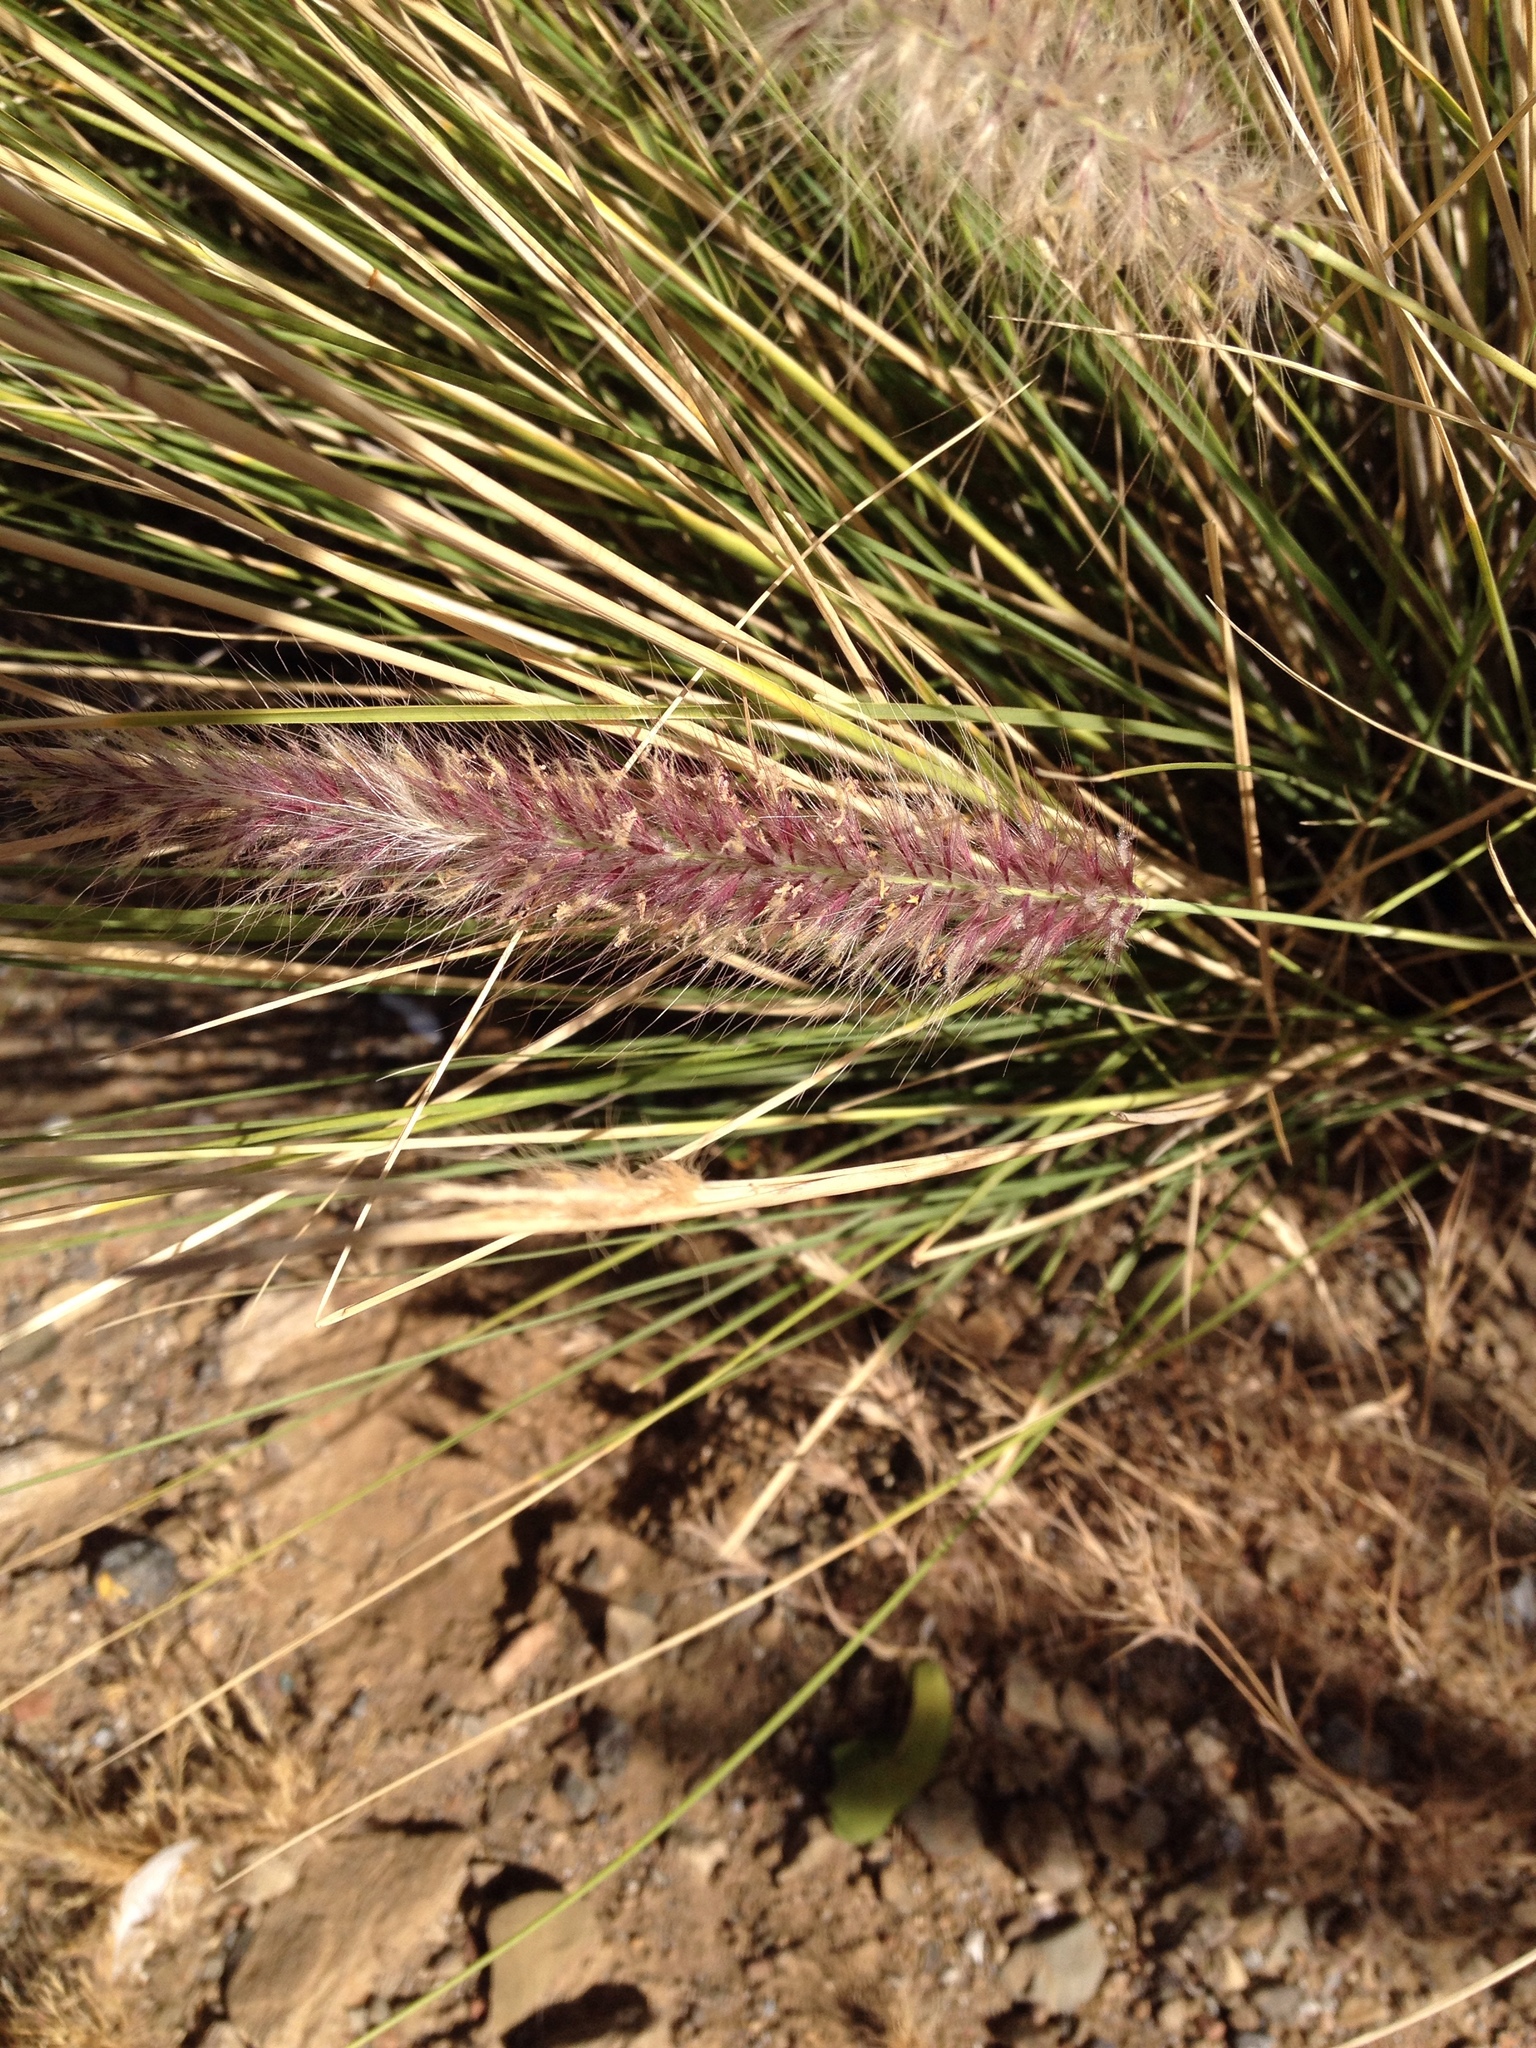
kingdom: Plantae
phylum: Tracheophyta
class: Liliopsida
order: Poales
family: Poaceae
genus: Cenchrus
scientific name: Cenchrus setaceus
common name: Crimson fountaingrass
